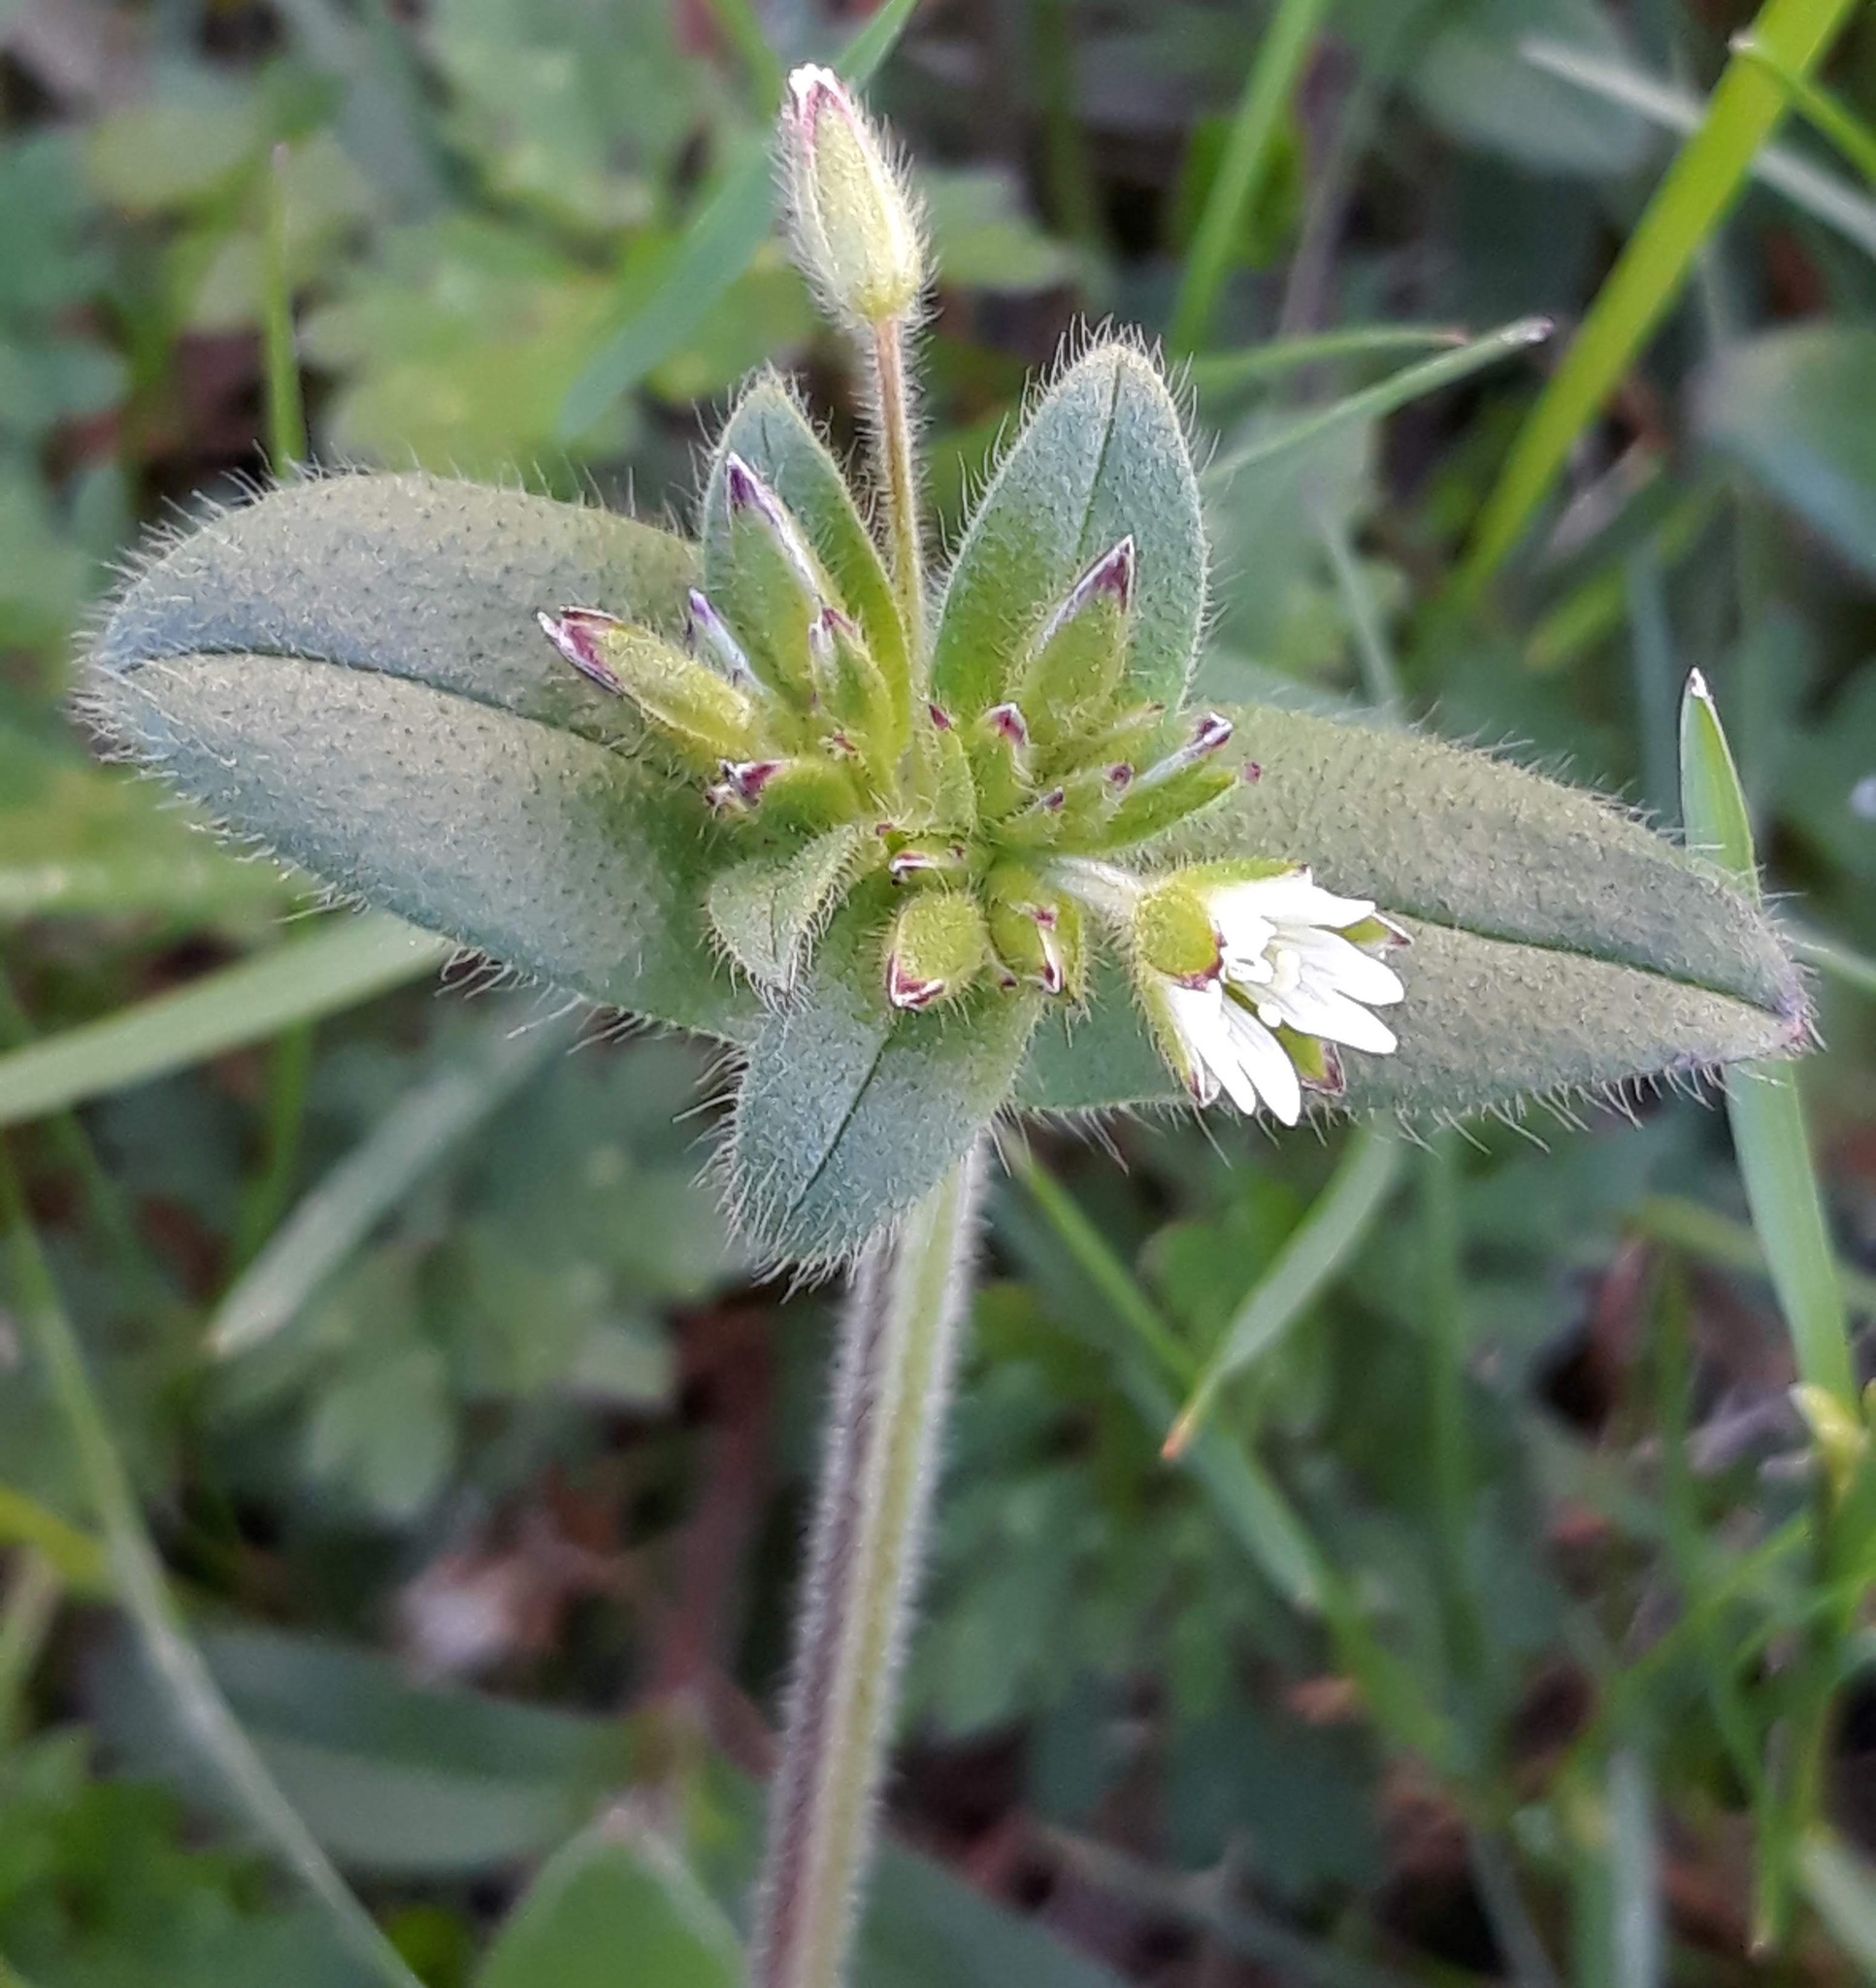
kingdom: Plantae
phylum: Tracheophyta
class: Magnoliopsida
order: Caryophyllales
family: Caryophyllaceae
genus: Cerastium
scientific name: Cerastium fontanum
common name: Common mouse-ear
